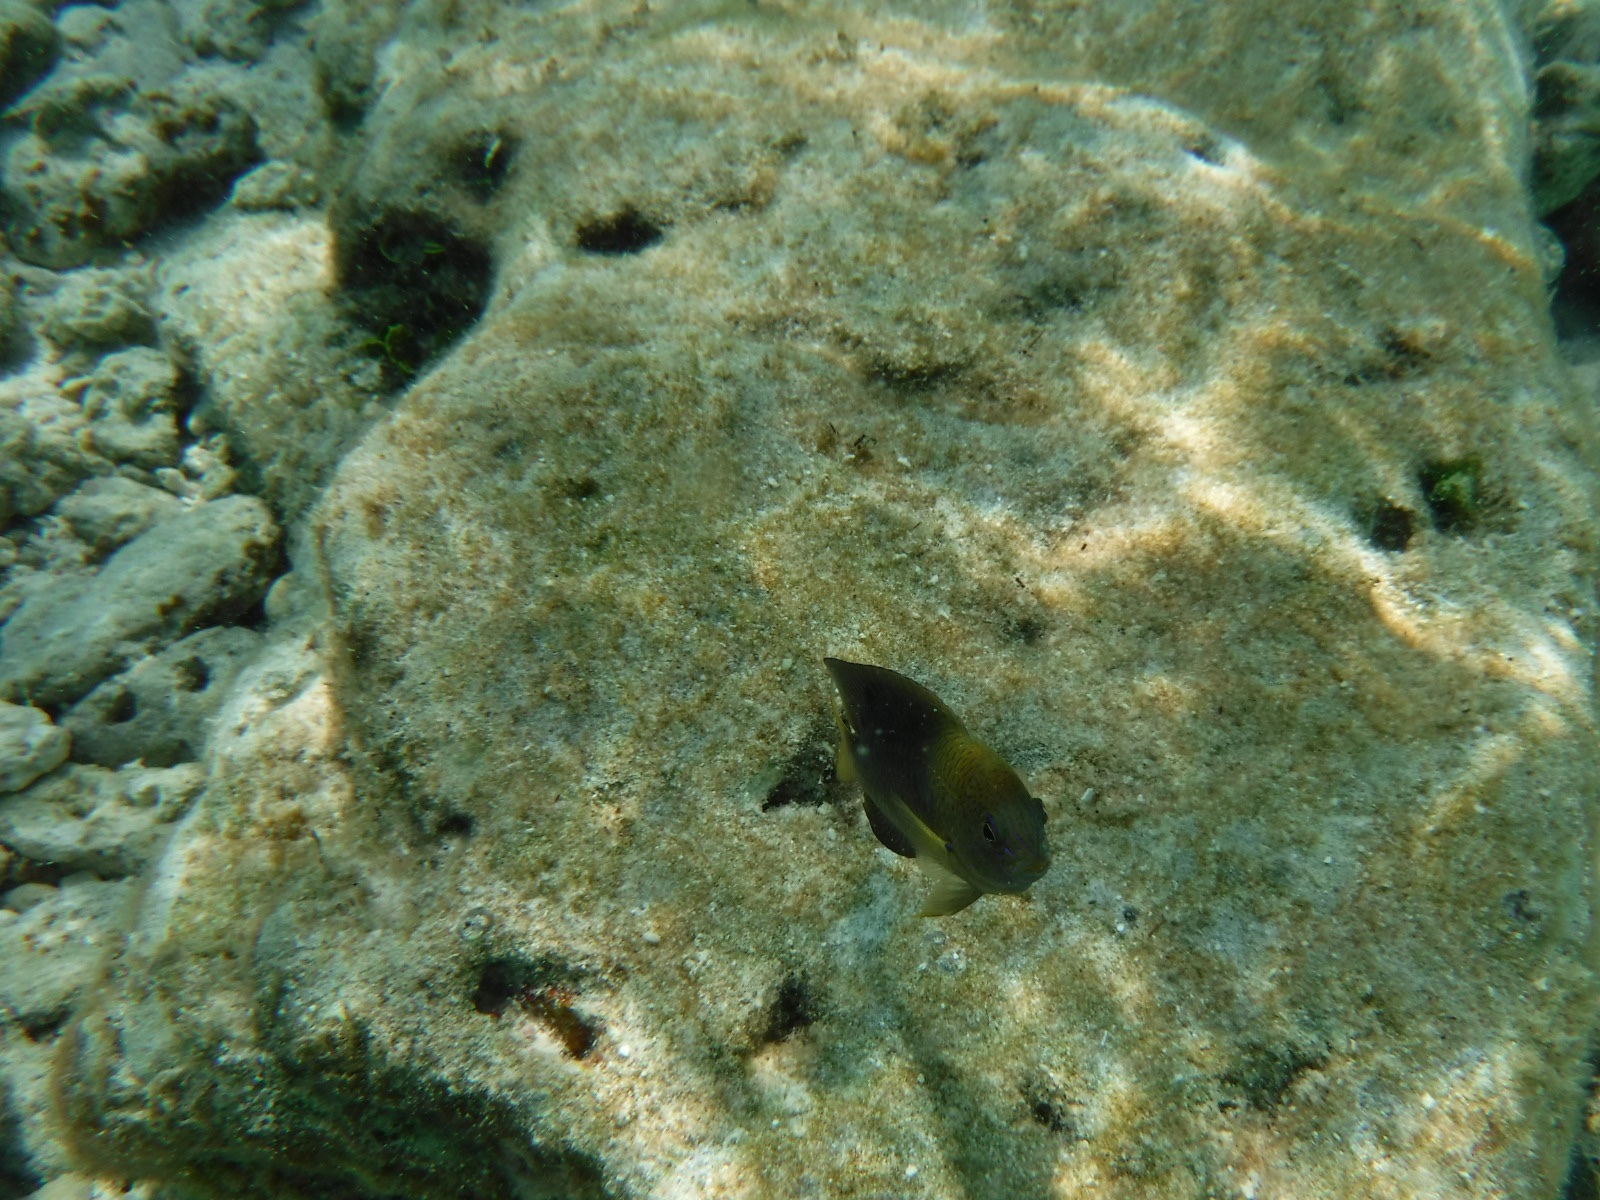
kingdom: Animalia
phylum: Chordata
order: Perciformes
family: Pomacentridae
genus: Stegastes
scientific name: Stegastes leucostictus
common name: Beaugregory
